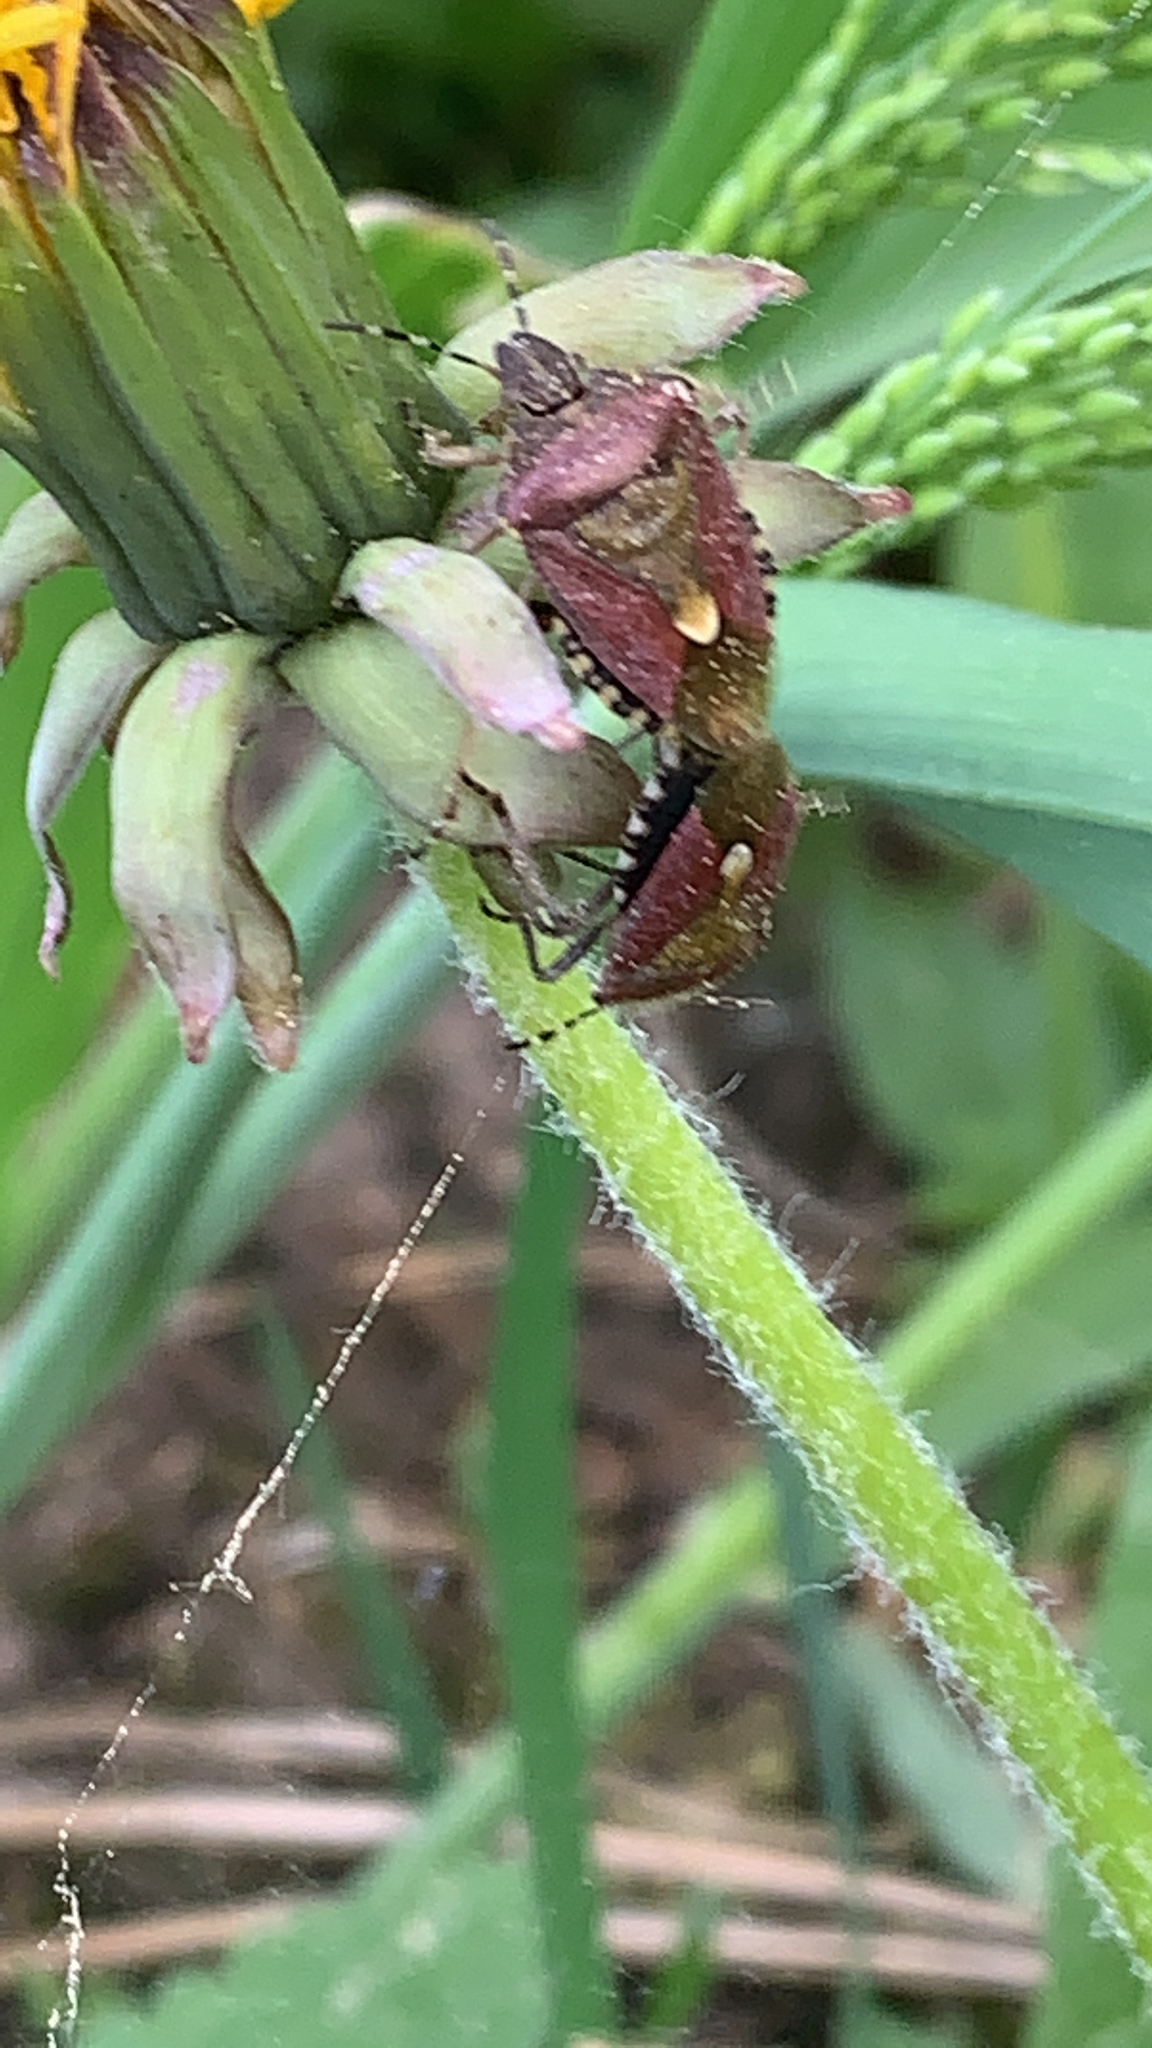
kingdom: Animalia
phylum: Arthropoda
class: Insecta
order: Hemiptera
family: Pentatomidae
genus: Dolycoris
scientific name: Dolycoris baccarum
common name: Sloe bug
